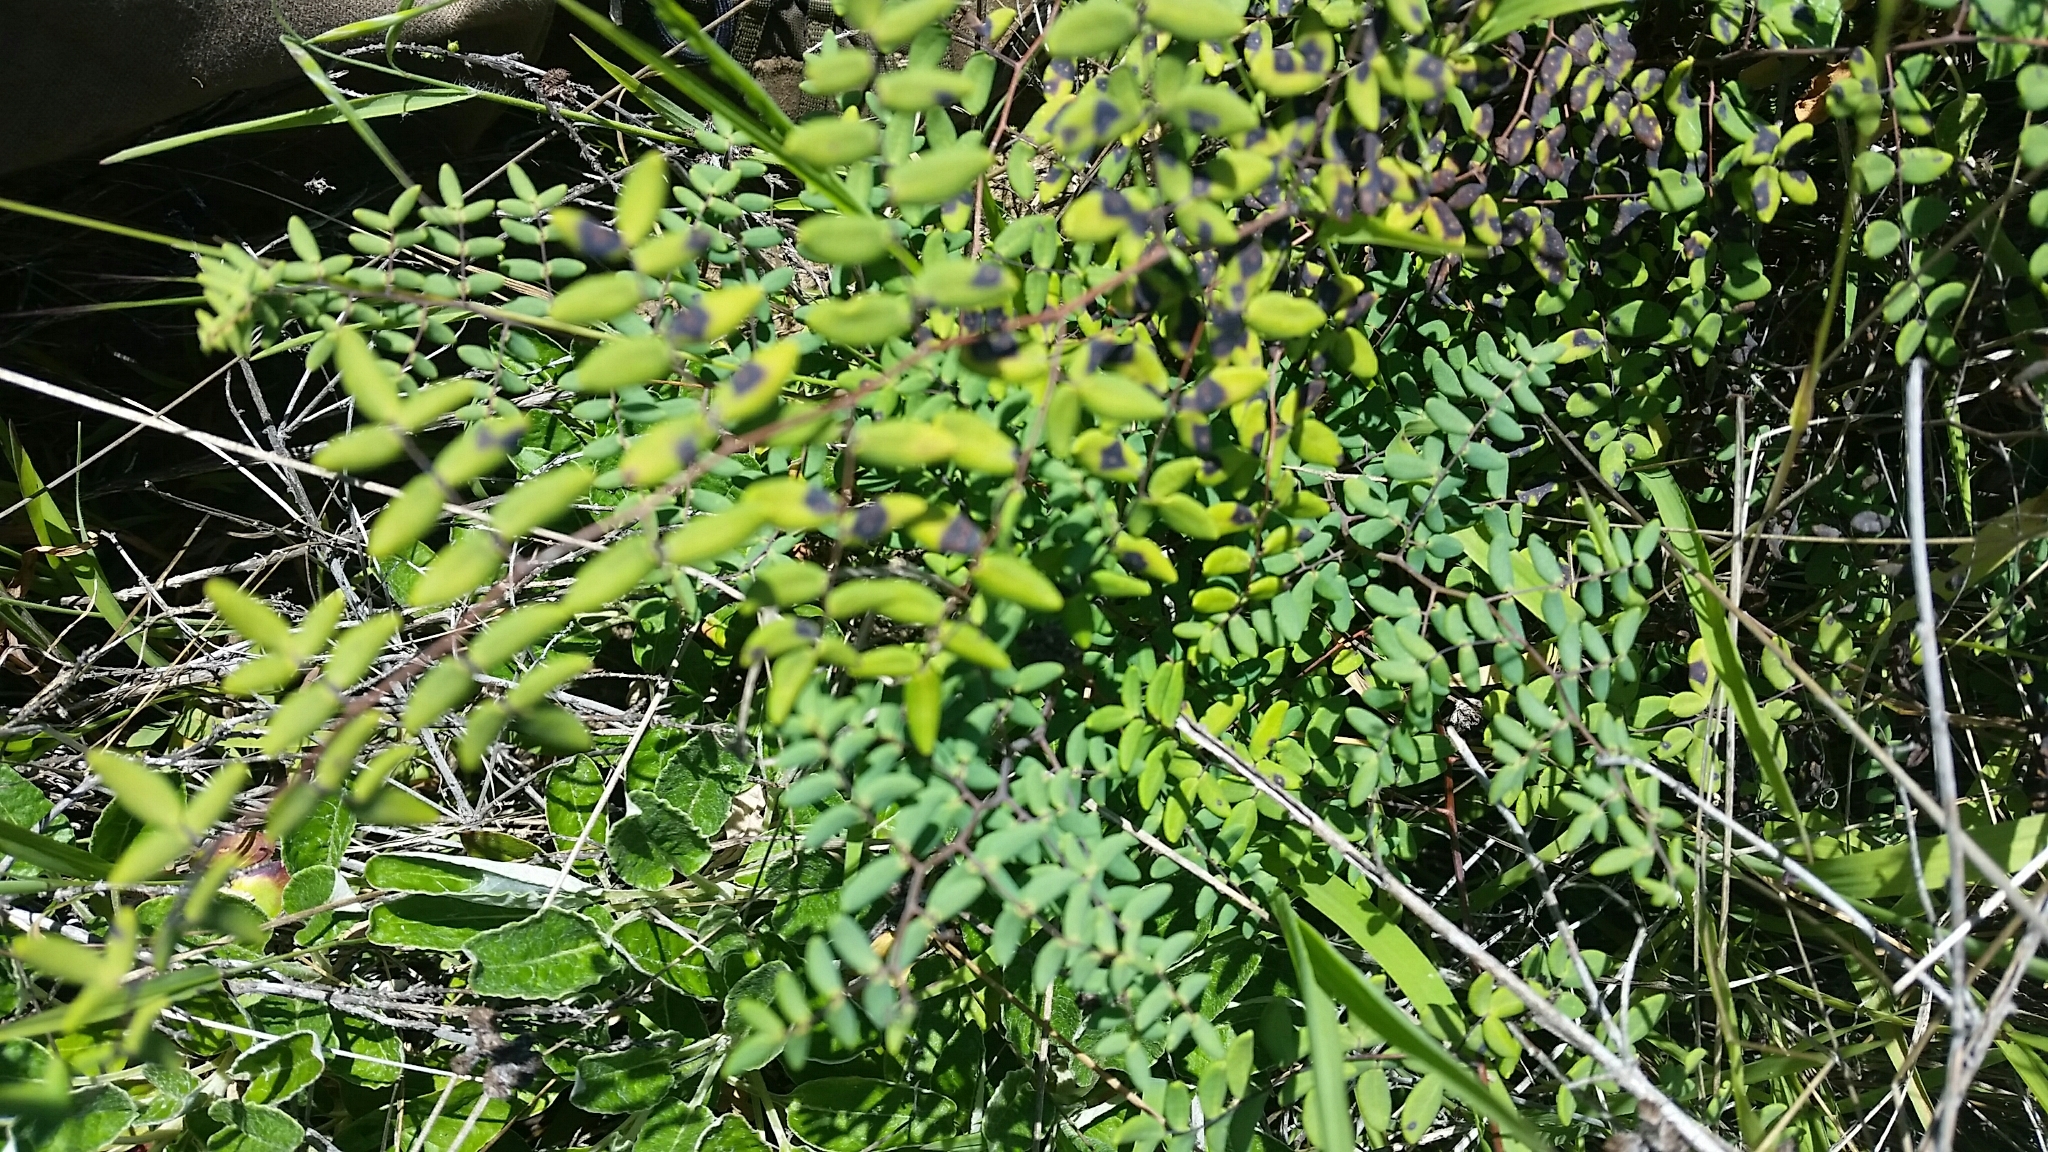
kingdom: Plantae
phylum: Tracheophyta
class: Polypodiopsida
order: Polypodiales
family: Pteridaceae
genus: Pellaea
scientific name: Pellaea andromedifolia
